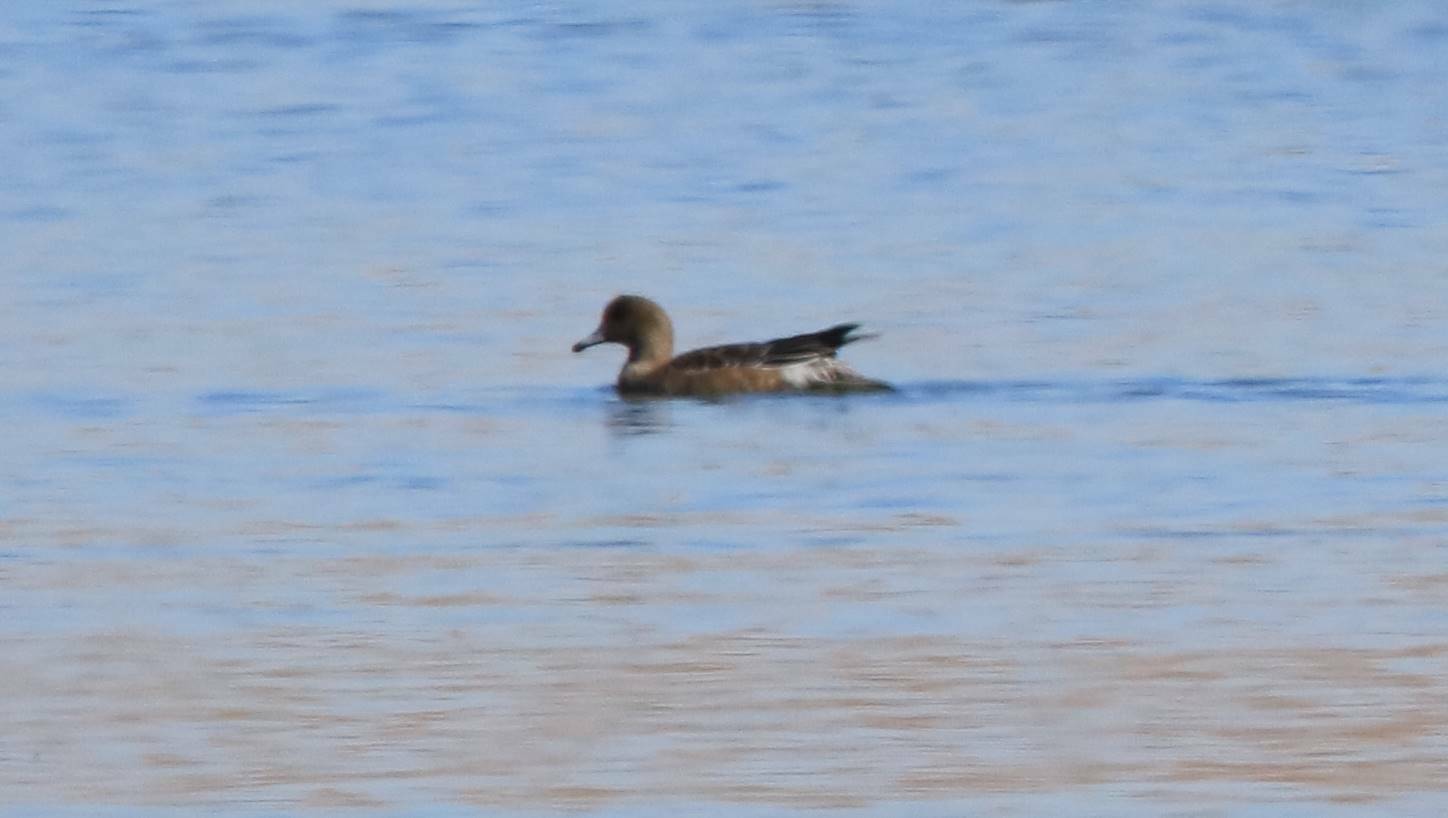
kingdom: Animalia
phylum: Chordata
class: Aves
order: Anseriformes
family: Anatidae
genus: Mareca
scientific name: Mareca penelope
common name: Eurasian wigeon
